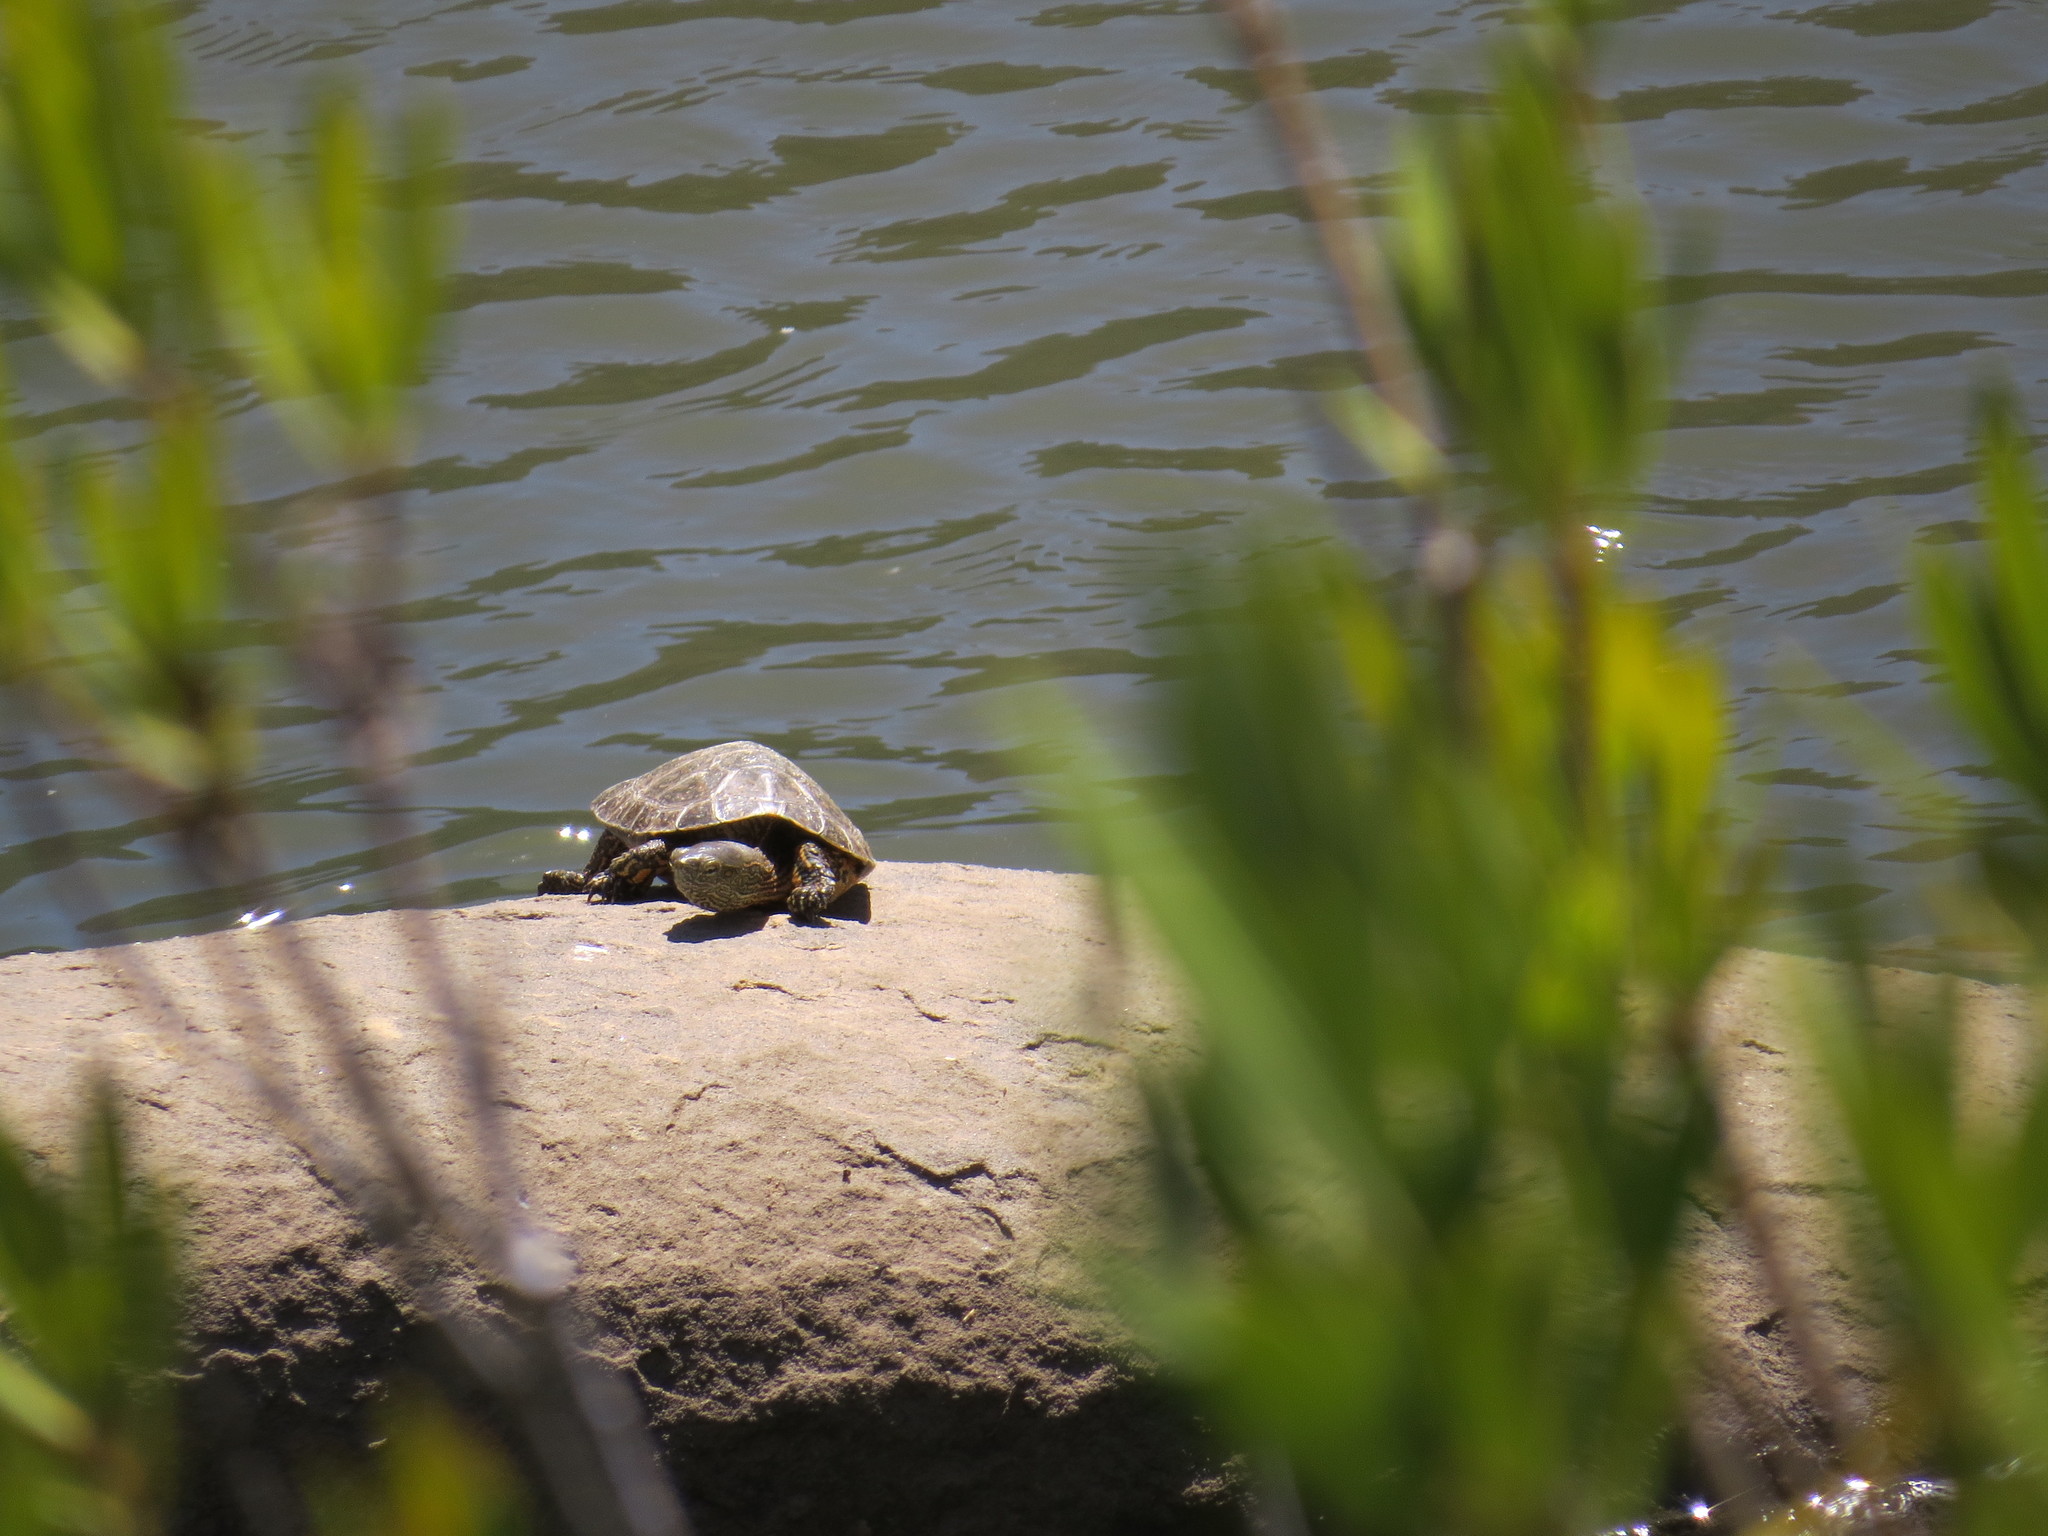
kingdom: Animalia
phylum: Chordata
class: Testudines
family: Geoemydidae
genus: Mauremys
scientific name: Mauremys leprosa
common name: Mediterranean pond turtle
